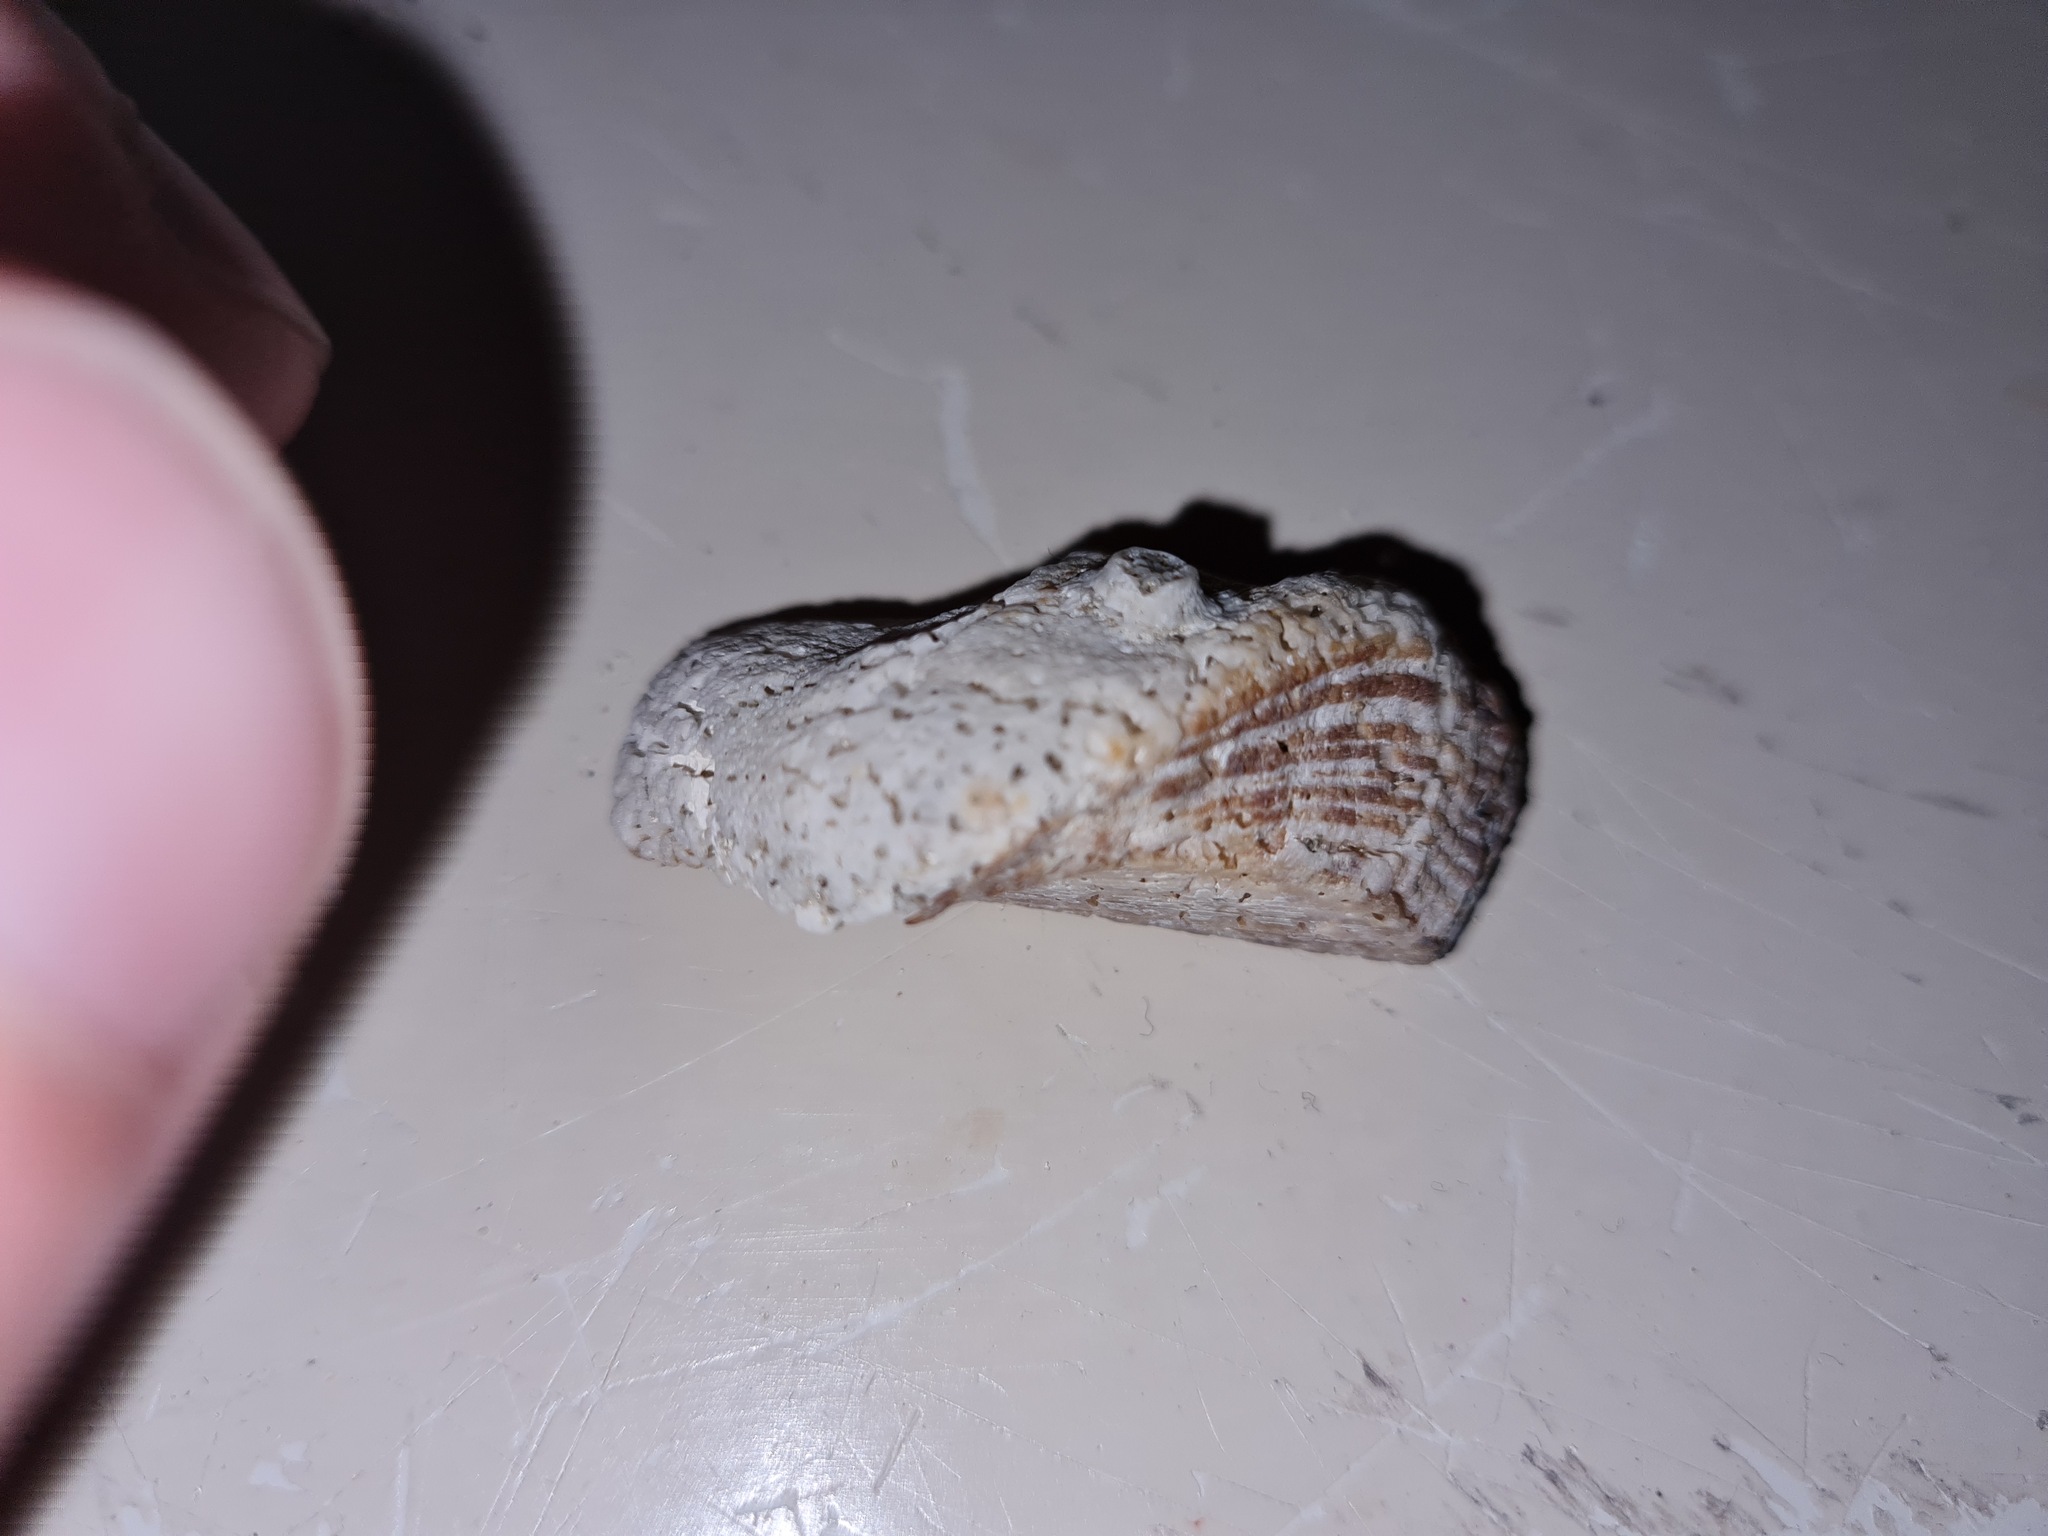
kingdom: Animalia
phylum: Mollusca
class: Bivalvia
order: Arcida
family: Arcidae
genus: Lamarcka
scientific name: Lamarcka imbricata
